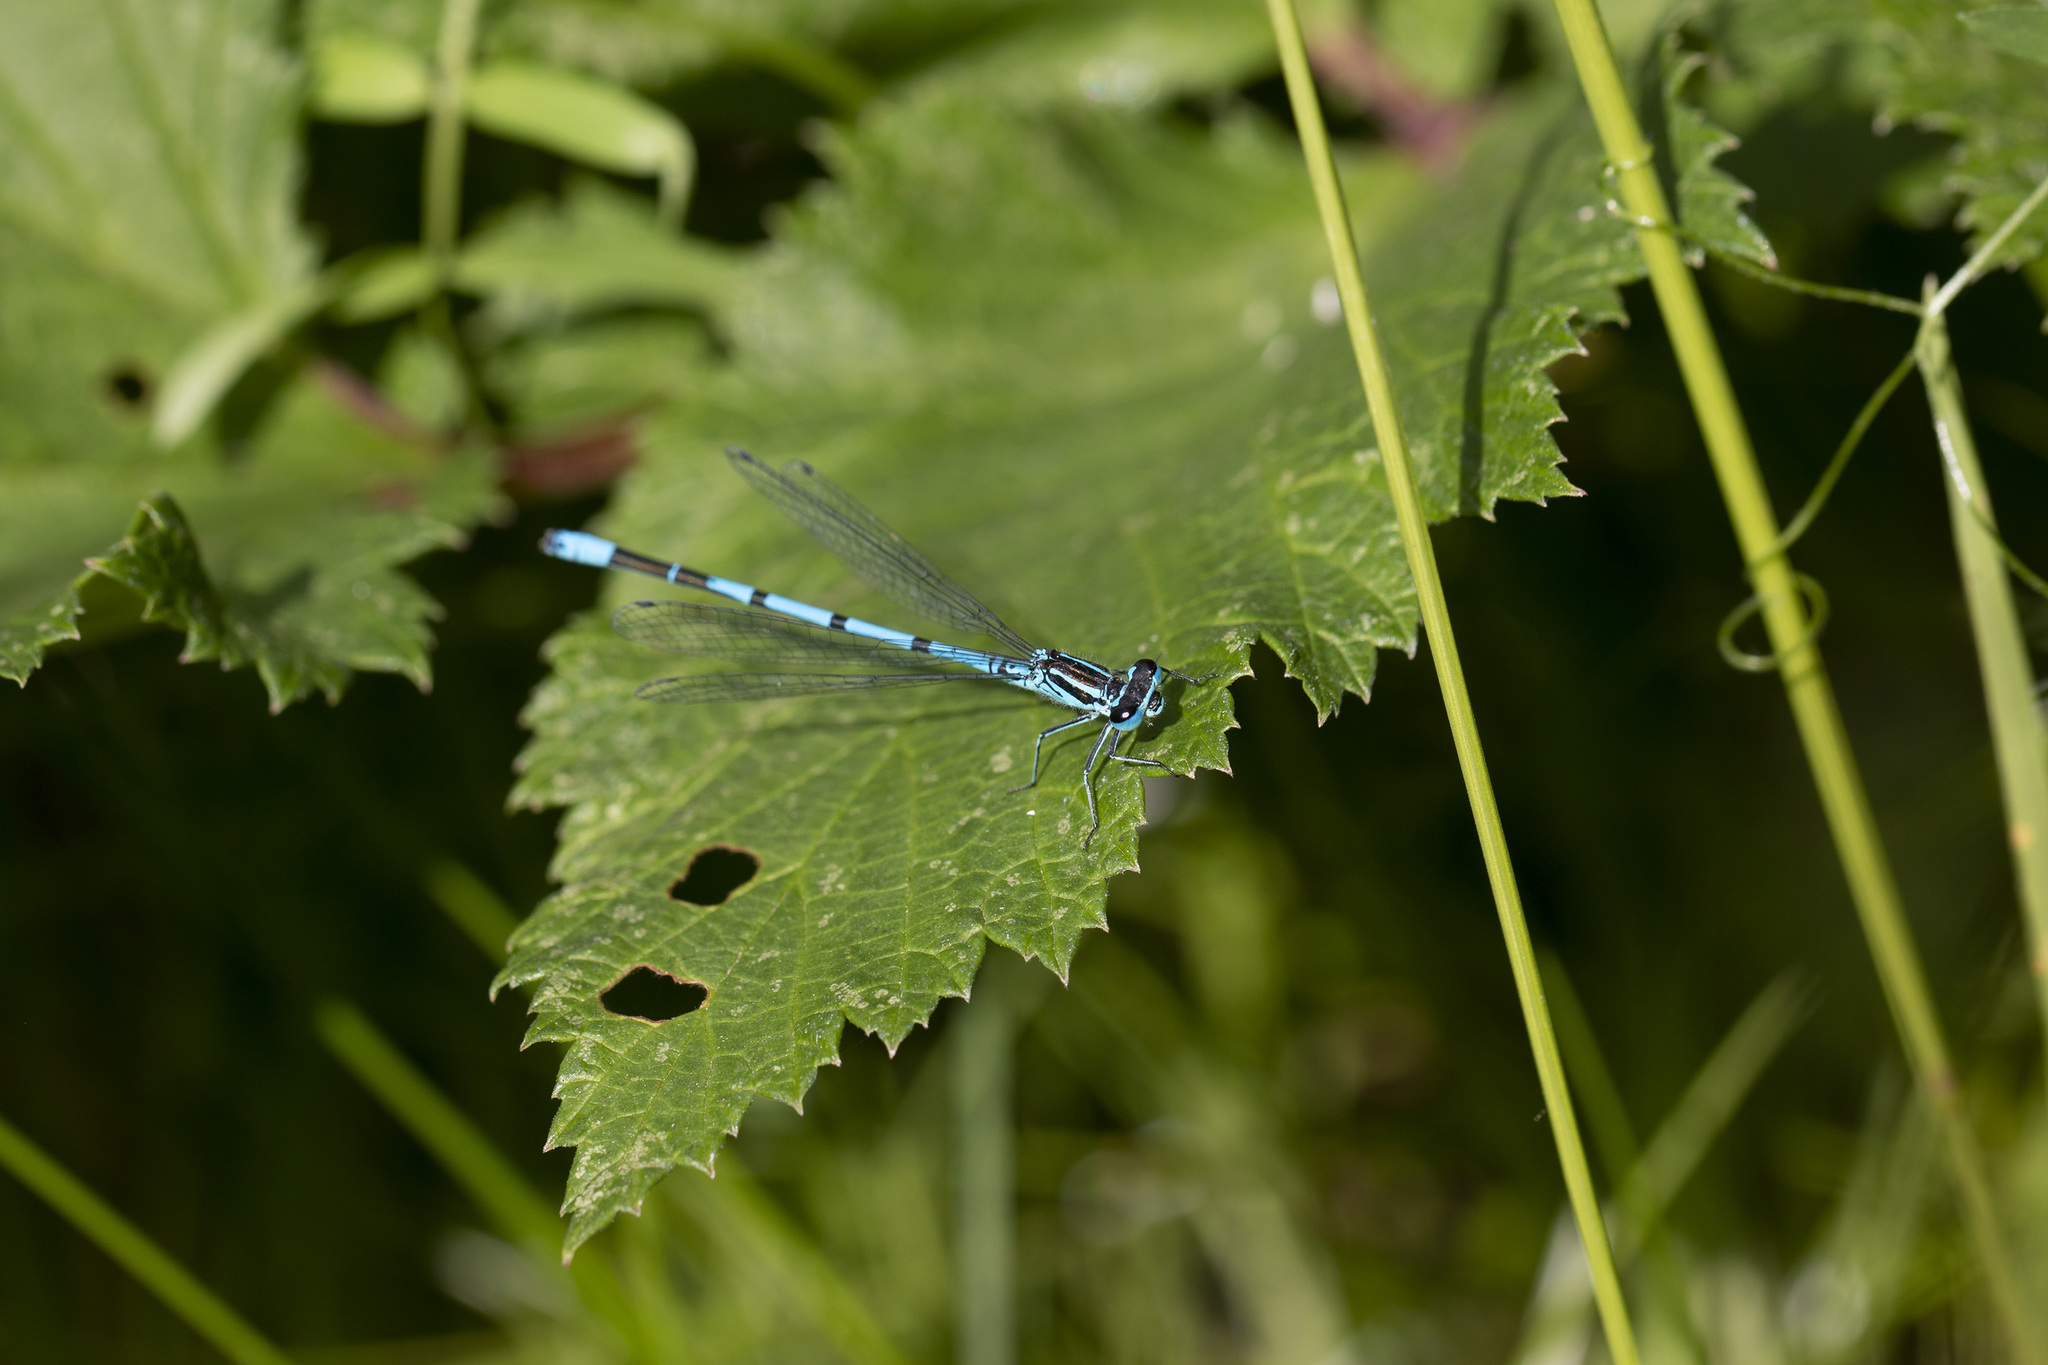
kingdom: Animalia
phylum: Arthropoda
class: Insecta
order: Odonata
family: Coenagrionidae
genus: Coenagrion
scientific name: Coenagrion puella
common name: Azure damselfly
